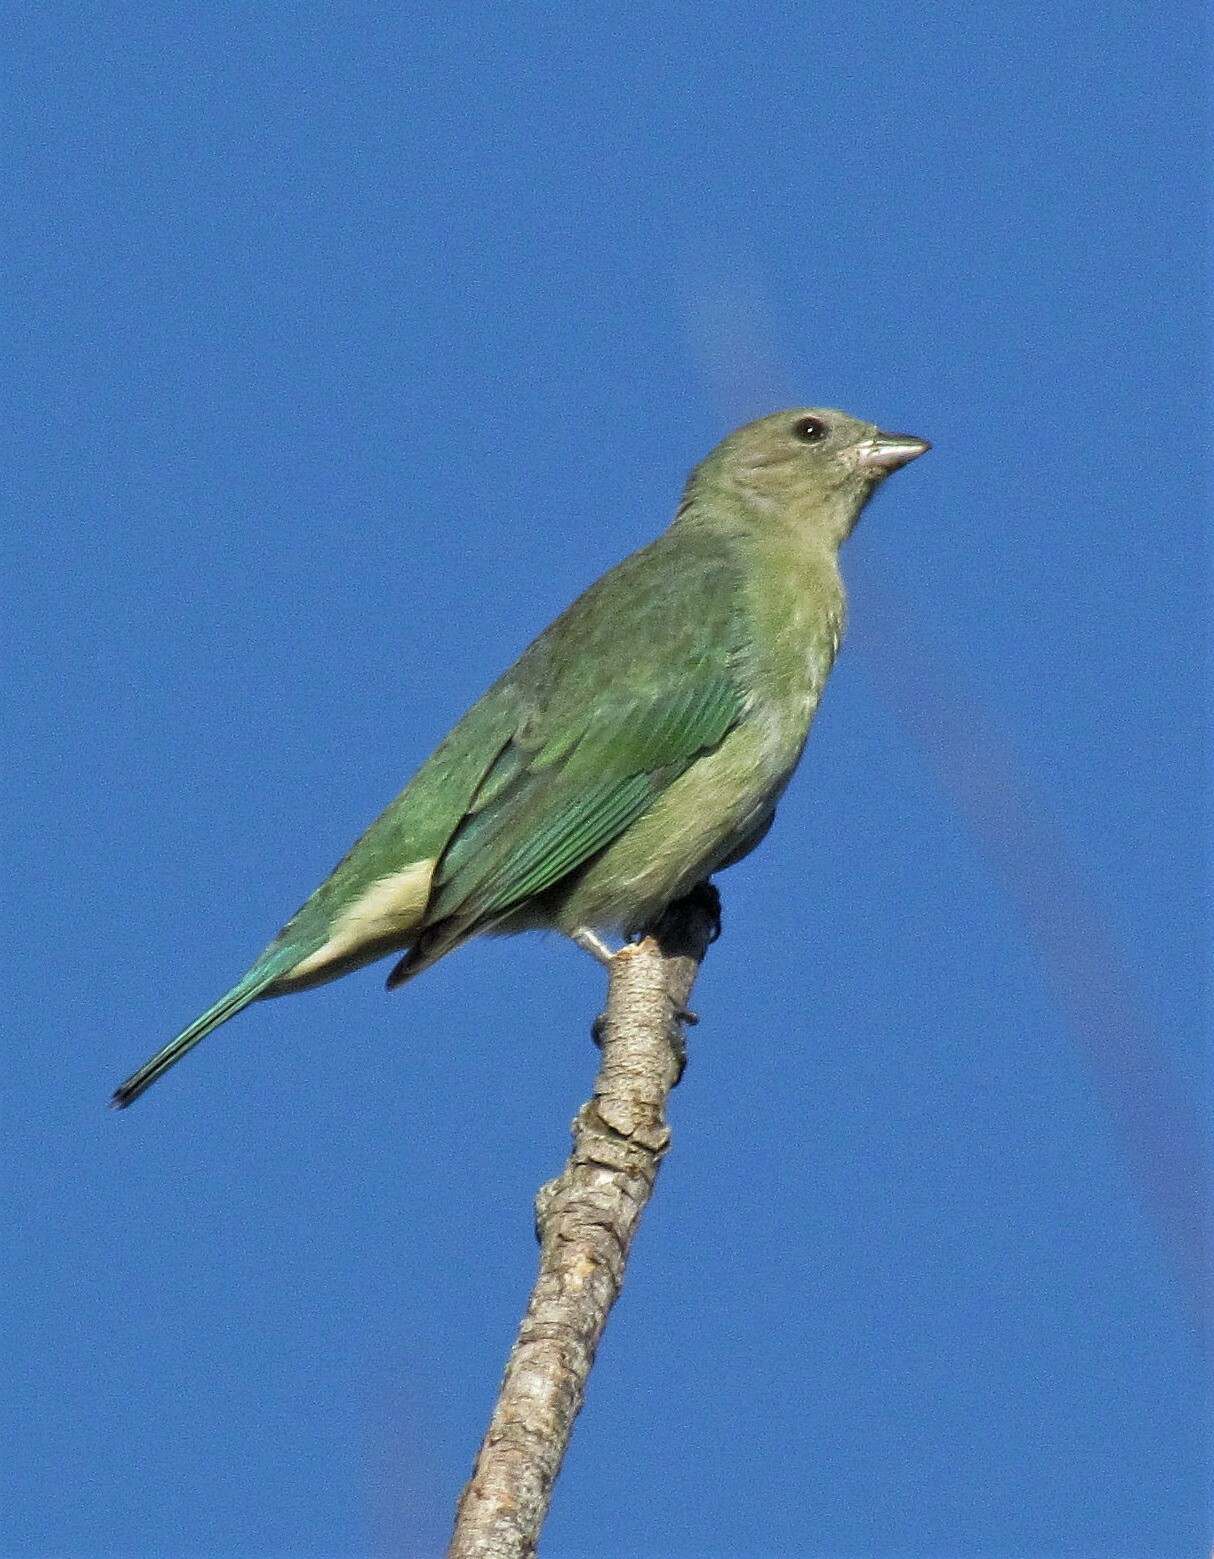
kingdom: Animalia
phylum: Chordata
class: Aves
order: Passeriformes
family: Thraupidae
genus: Thraupis
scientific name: Thraupis sayaca
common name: Sayaca tanager
